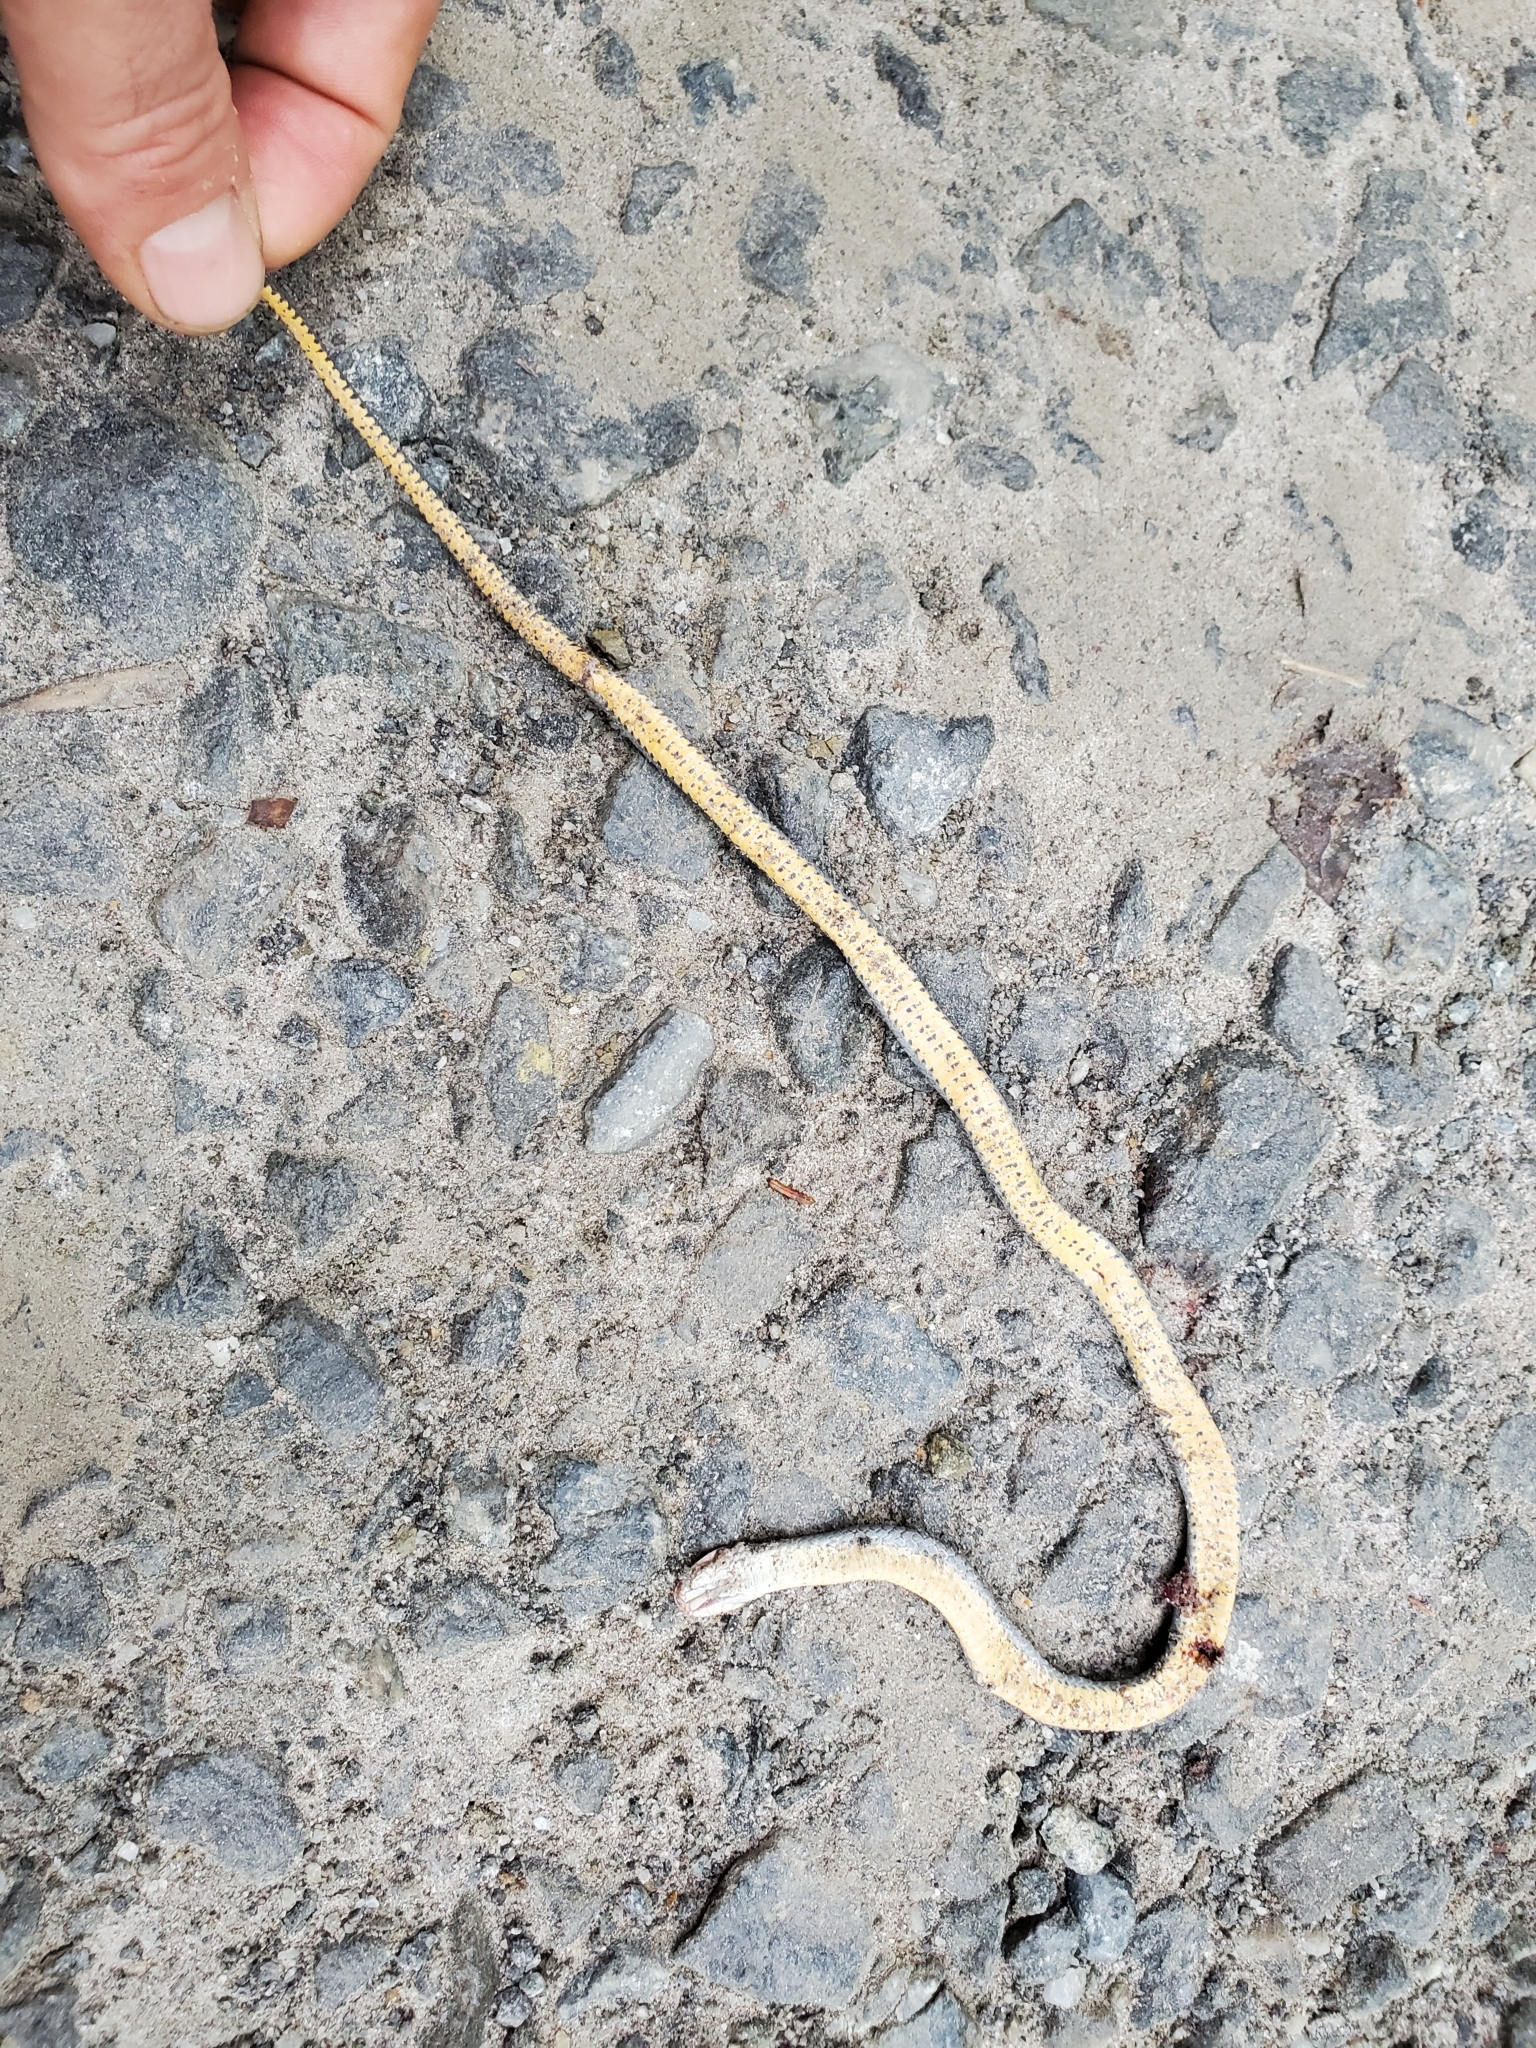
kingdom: Animalia
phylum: Chordata
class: Squamata
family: Colubridae
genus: Diadophis
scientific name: Diadophis punctatus
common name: Ringneck snake
